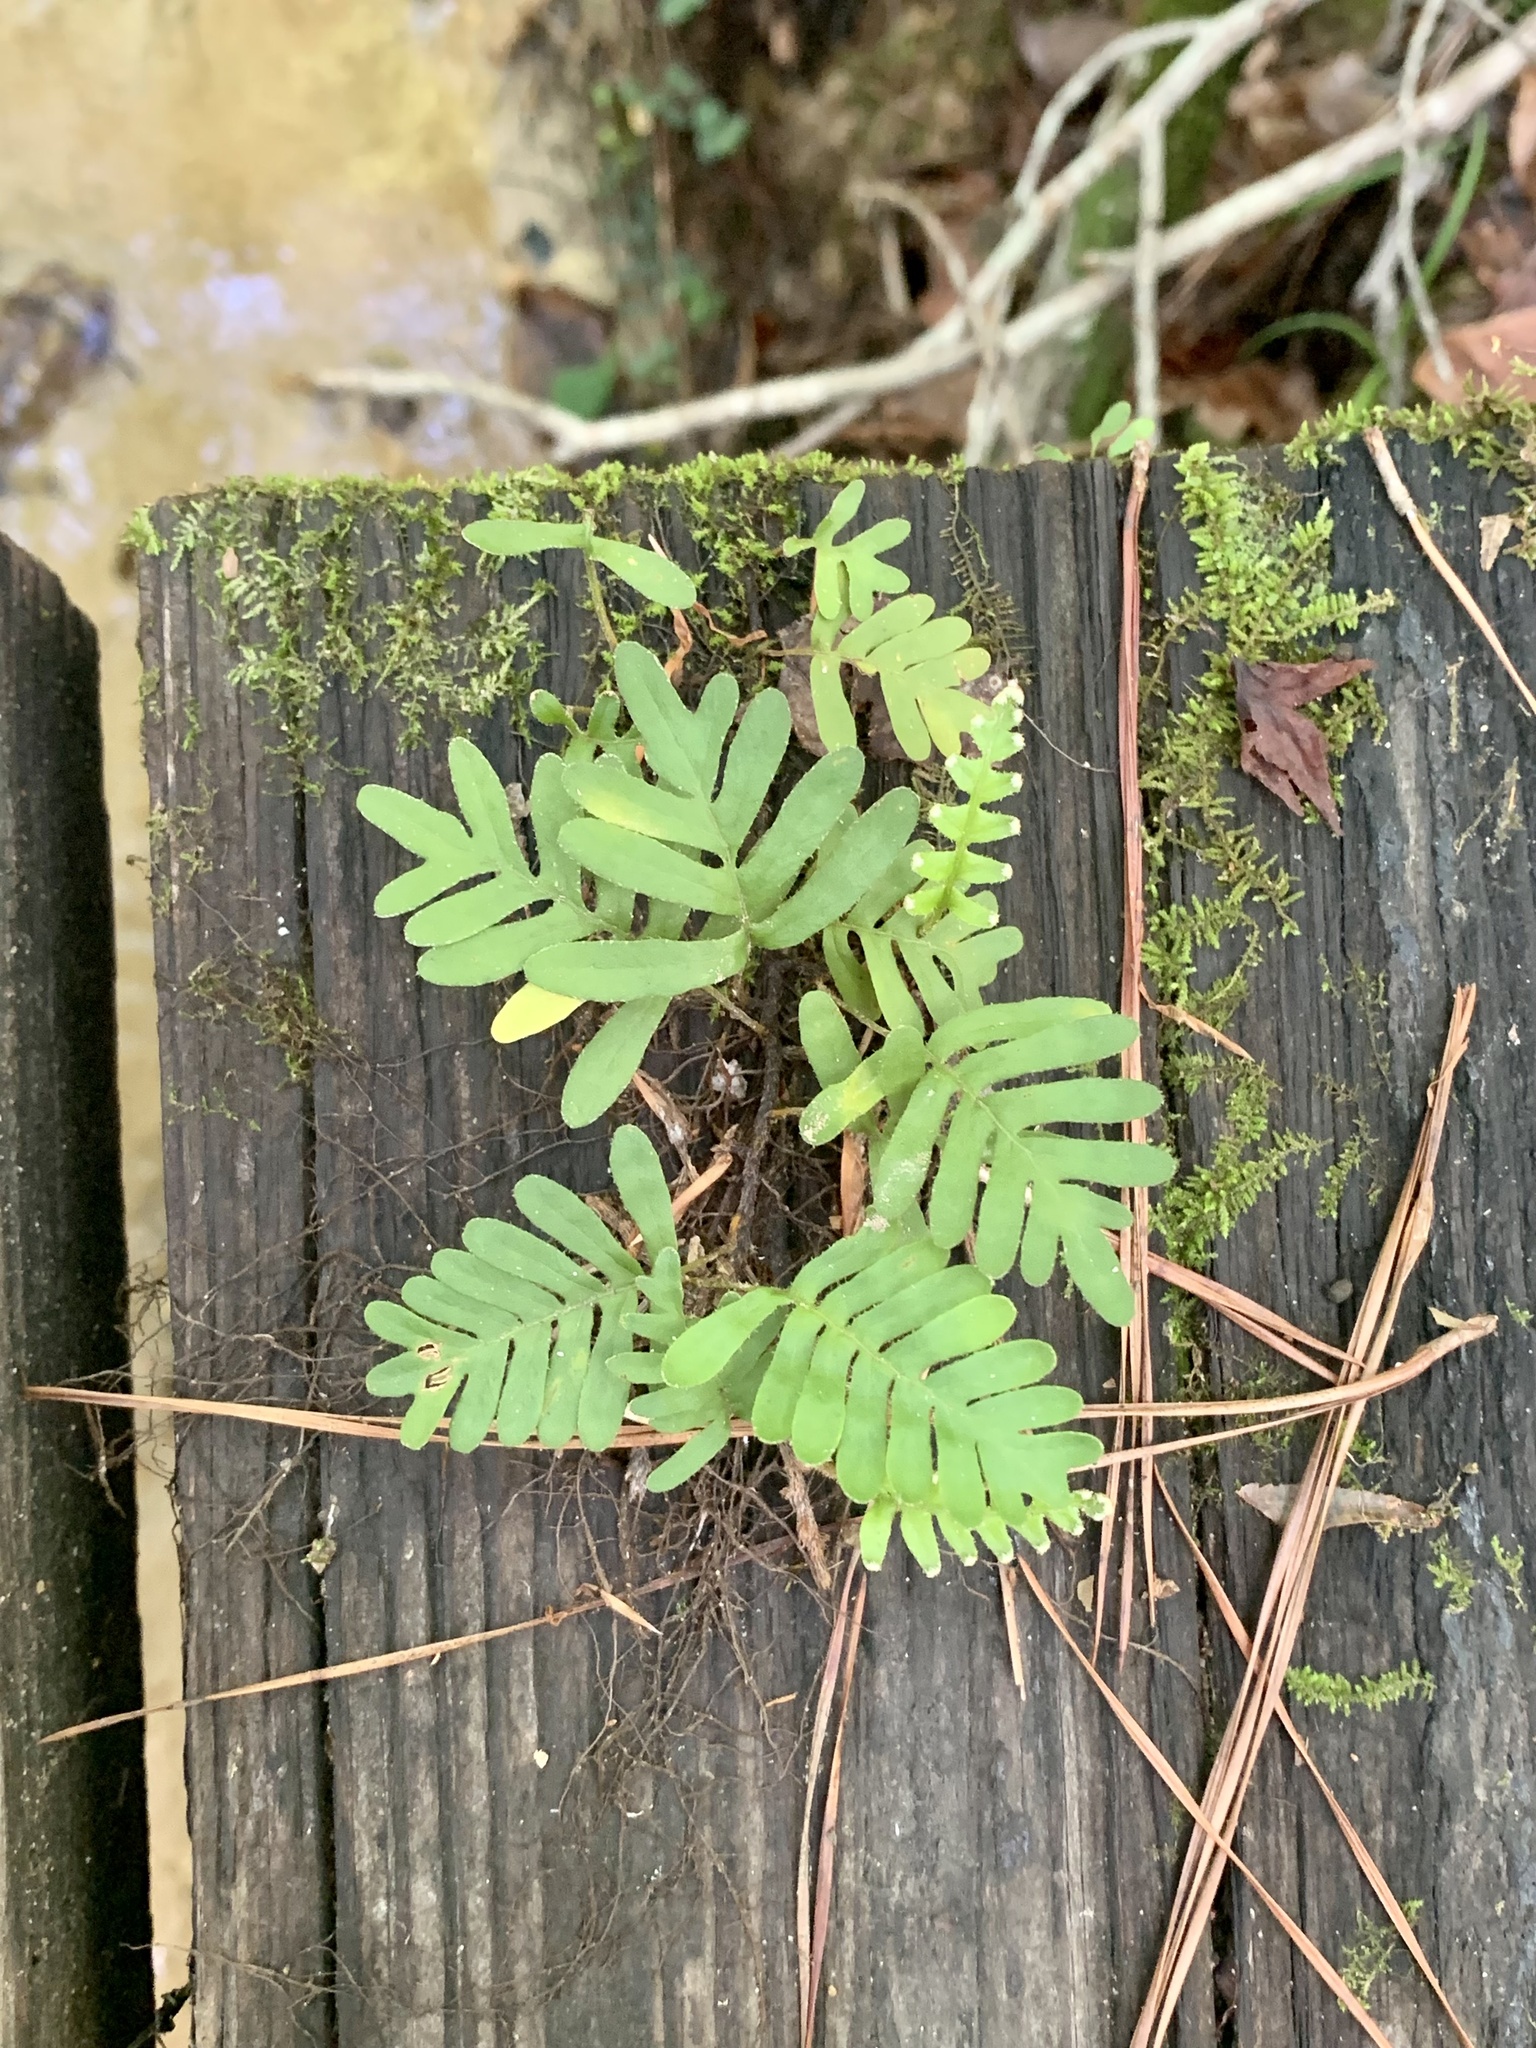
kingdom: Plantae
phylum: Tracheophyta
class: Polypodiopsida
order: Polypodiales
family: Polypodiaceae
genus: Pleopeltis
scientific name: Pleopeltis michauxiana
